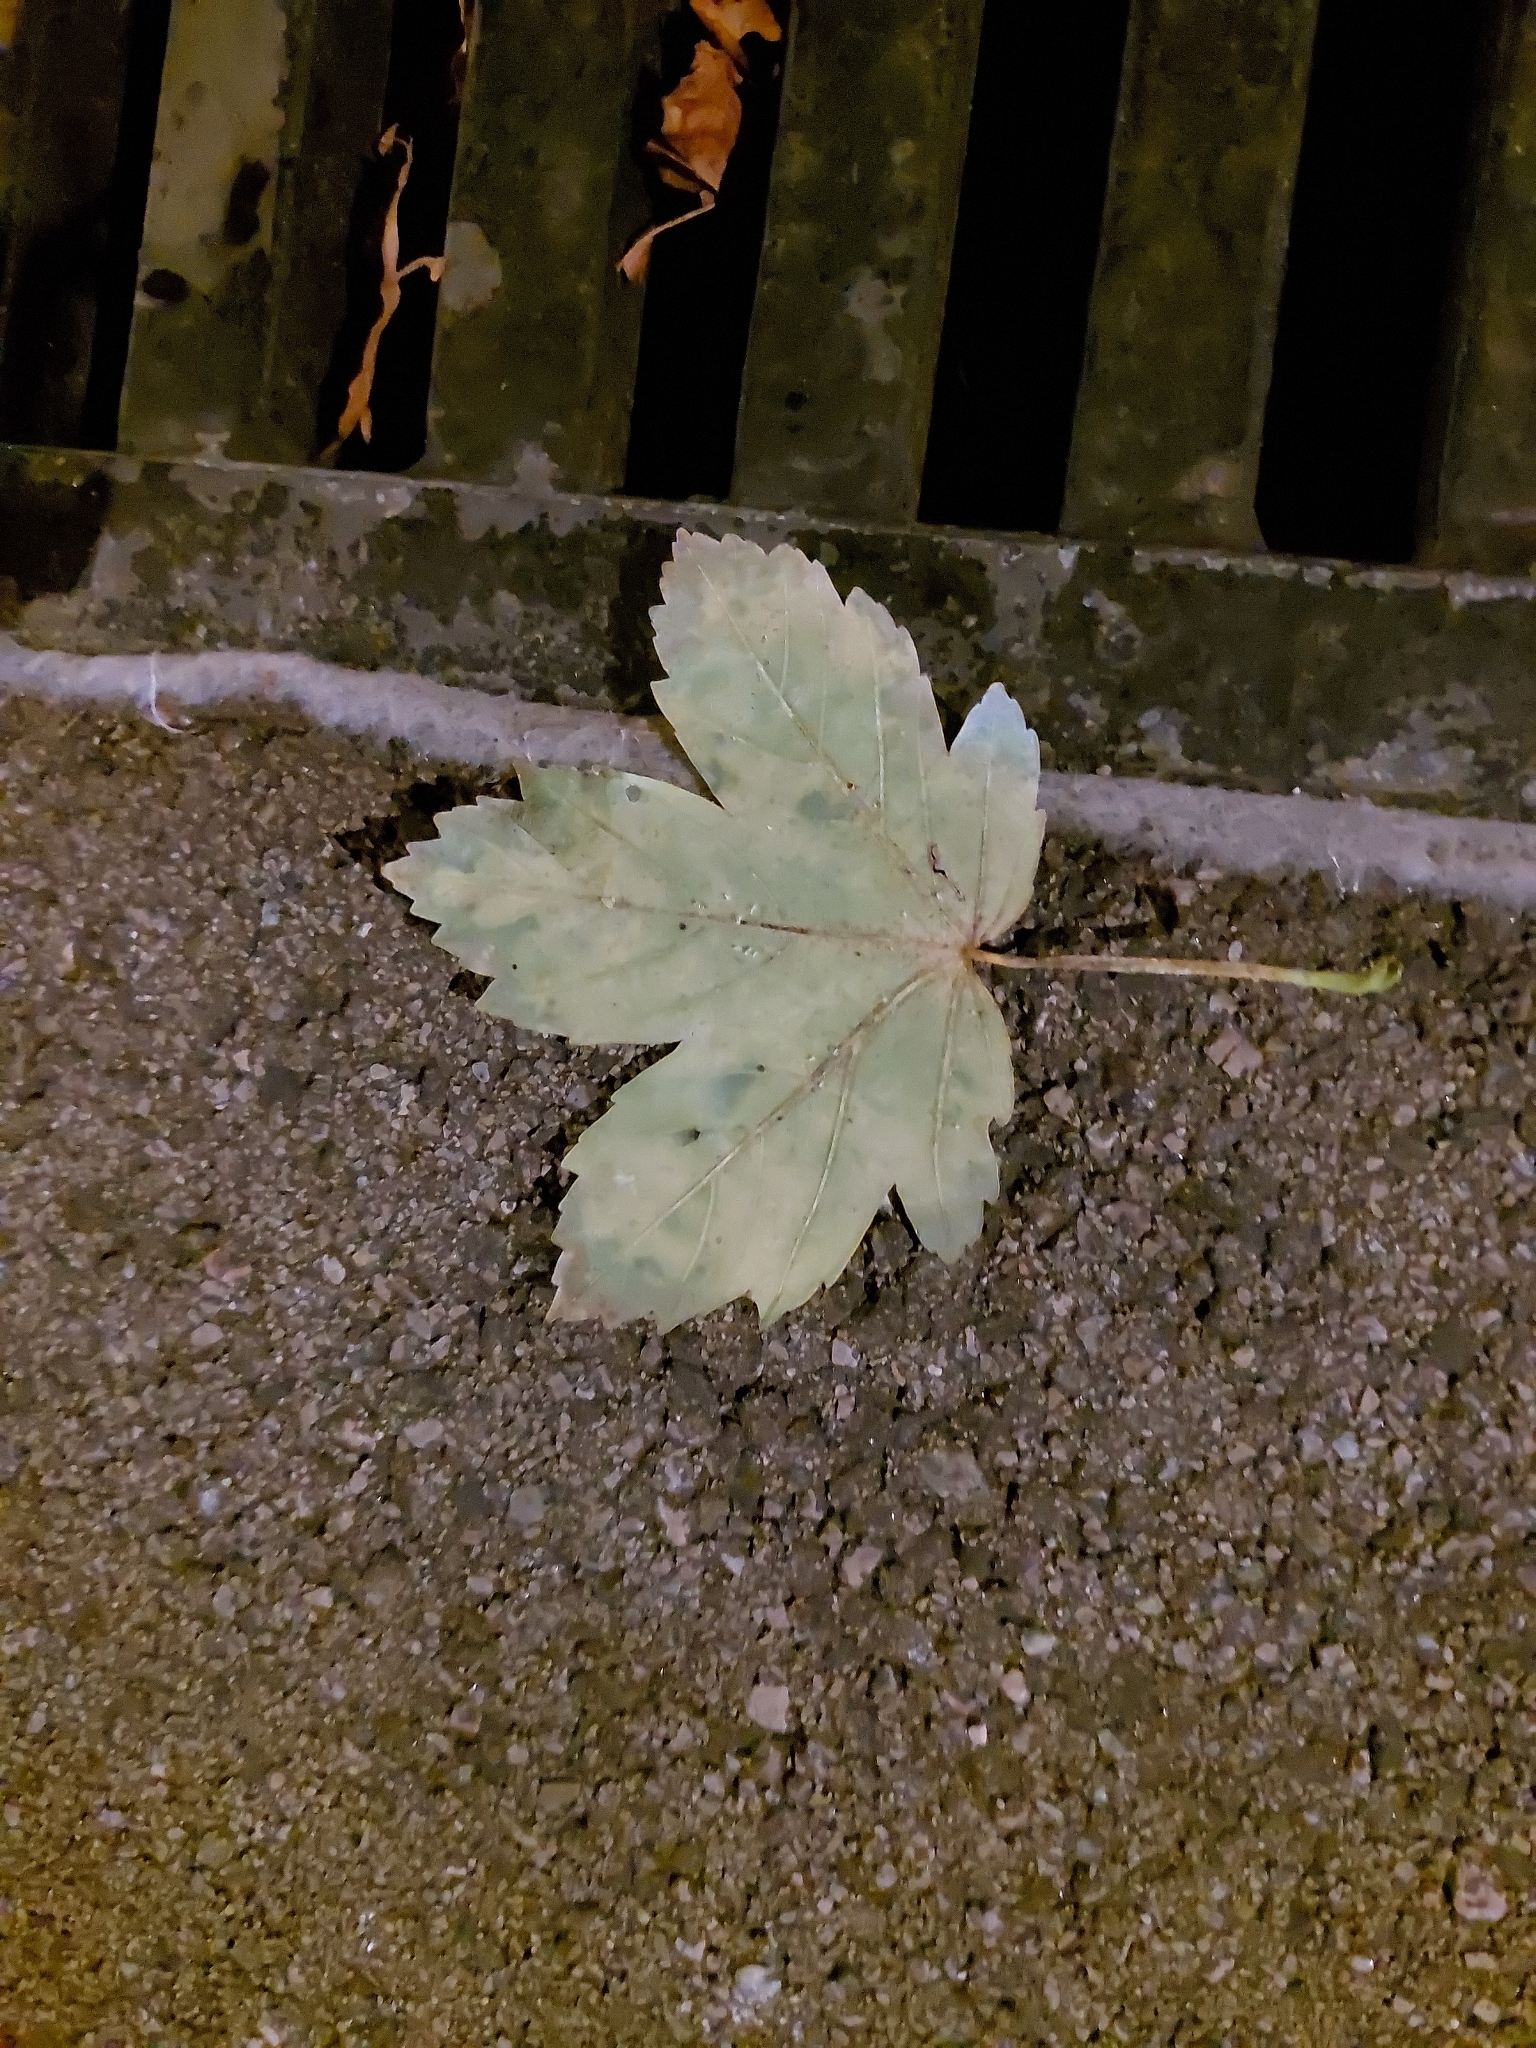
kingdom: Plantae
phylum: Tracheophyta
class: Magnoliopsida
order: Sapindales
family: Sapindaceae
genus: Acer
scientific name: Acer pseudoplatanus
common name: Sycamore
